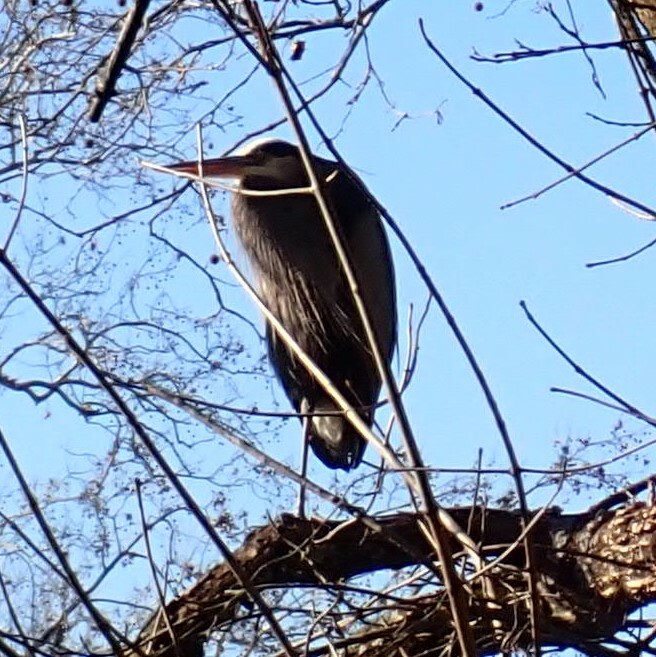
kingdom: Animalia
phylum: Chordata
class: Aves
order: Pelecaniformes
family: Ardeidae
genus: Ardea
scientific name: Ardea herodias
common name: Great blue heron
